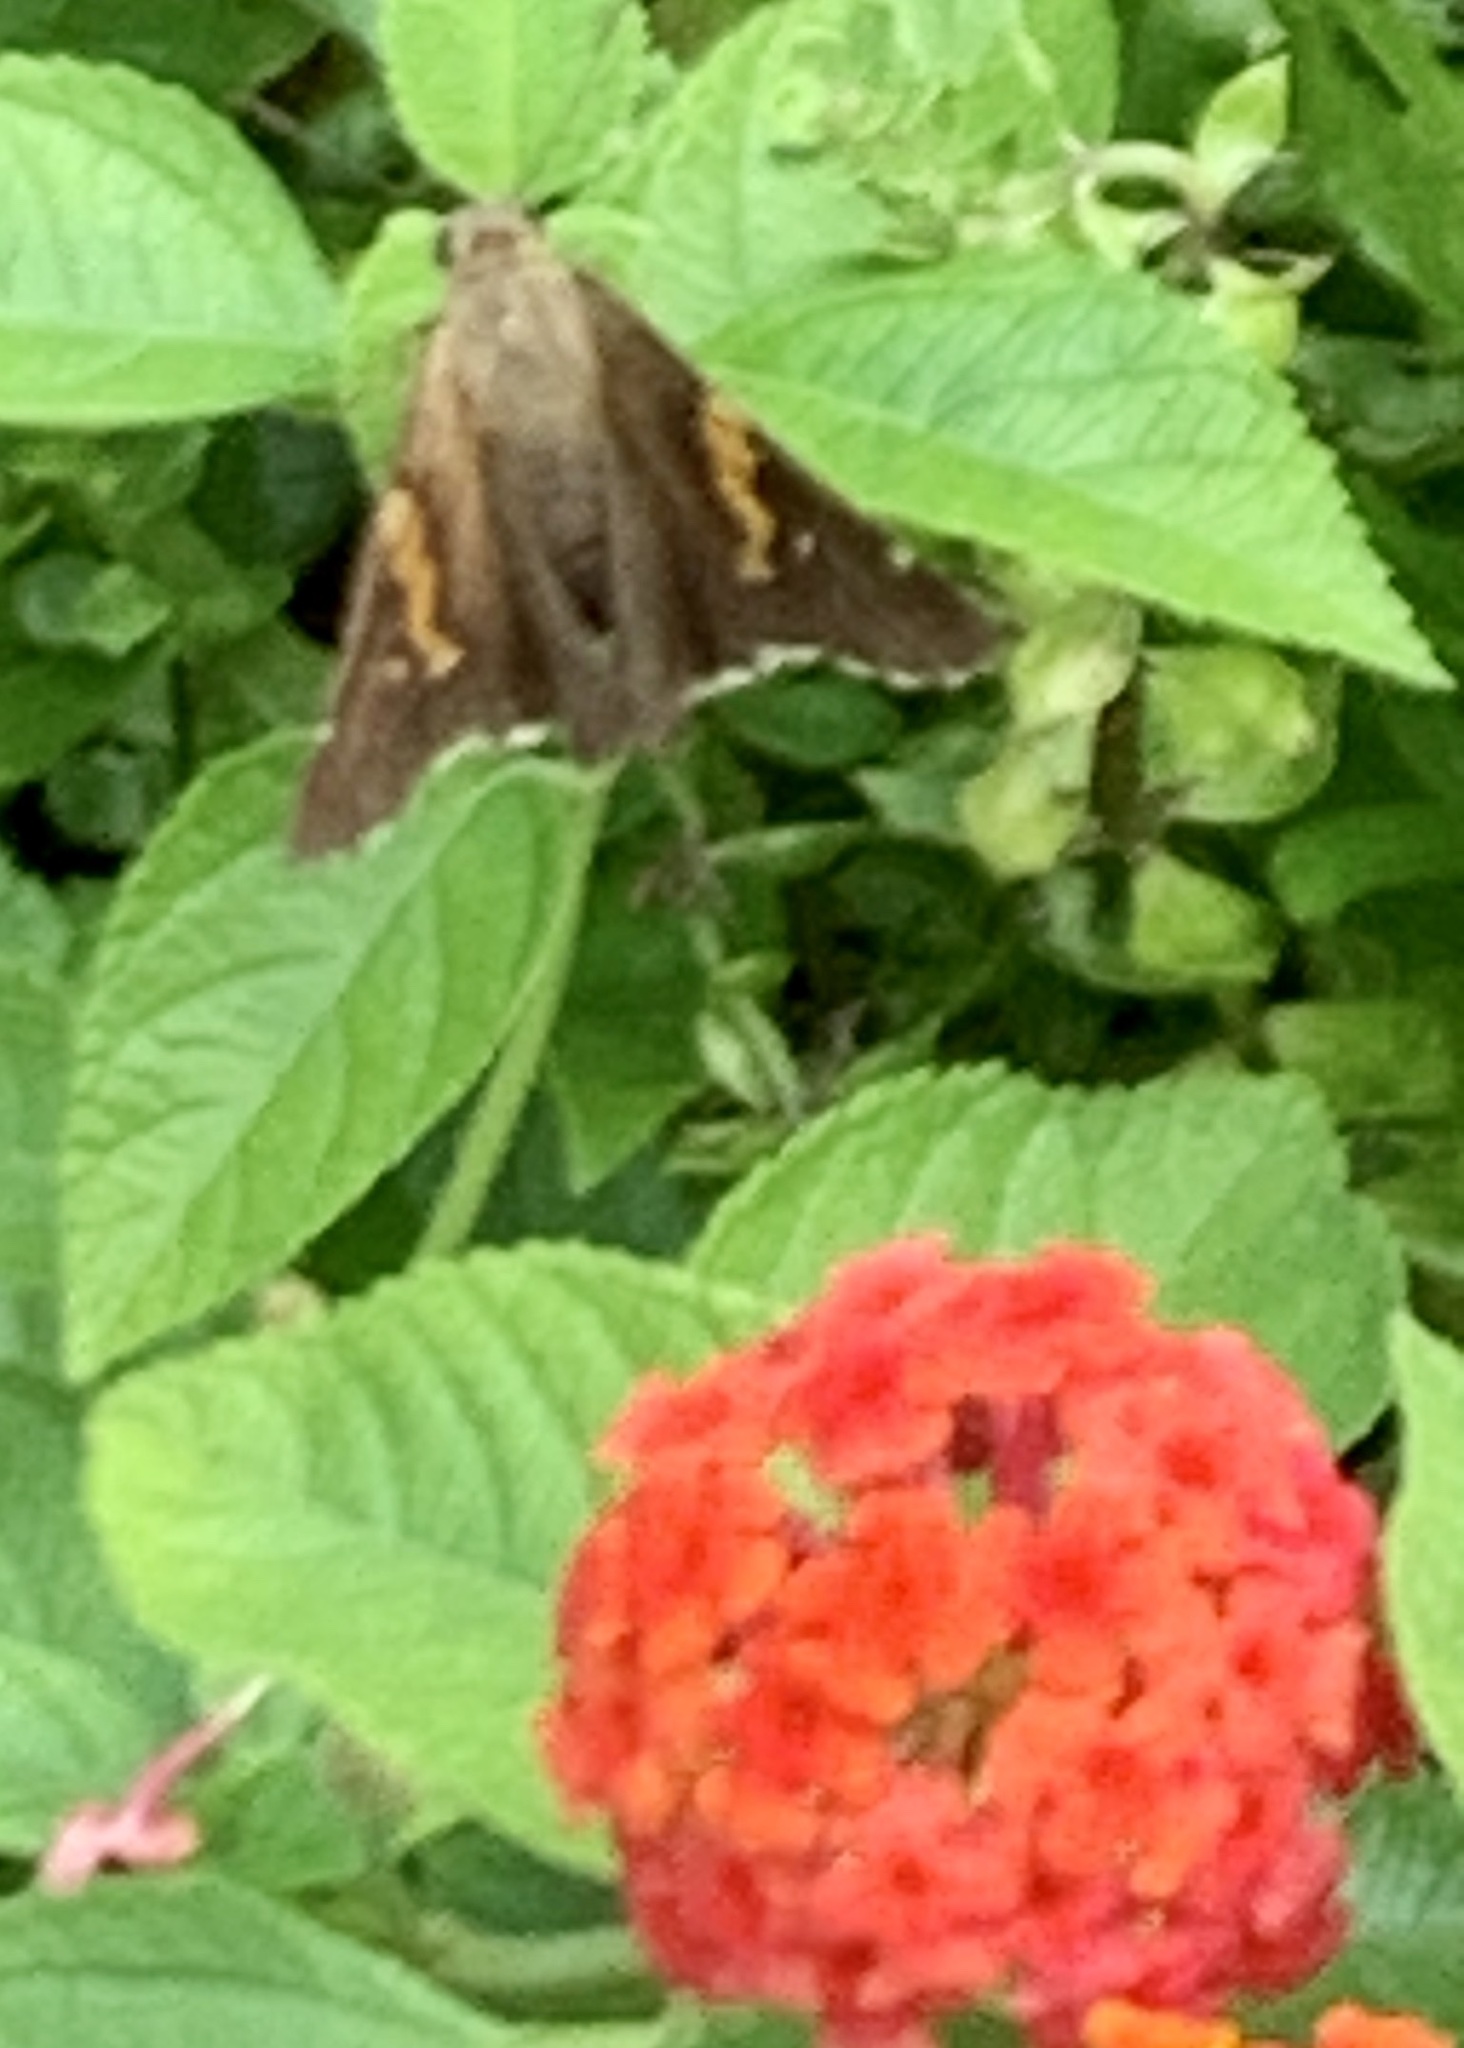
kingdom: Animalia
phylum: Arthropoda
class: Insecta
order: Lepidoptera
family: Hesperiidae
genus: Epargyreus
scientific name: Epargyreus clarus
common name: Silver-spotted skipper
